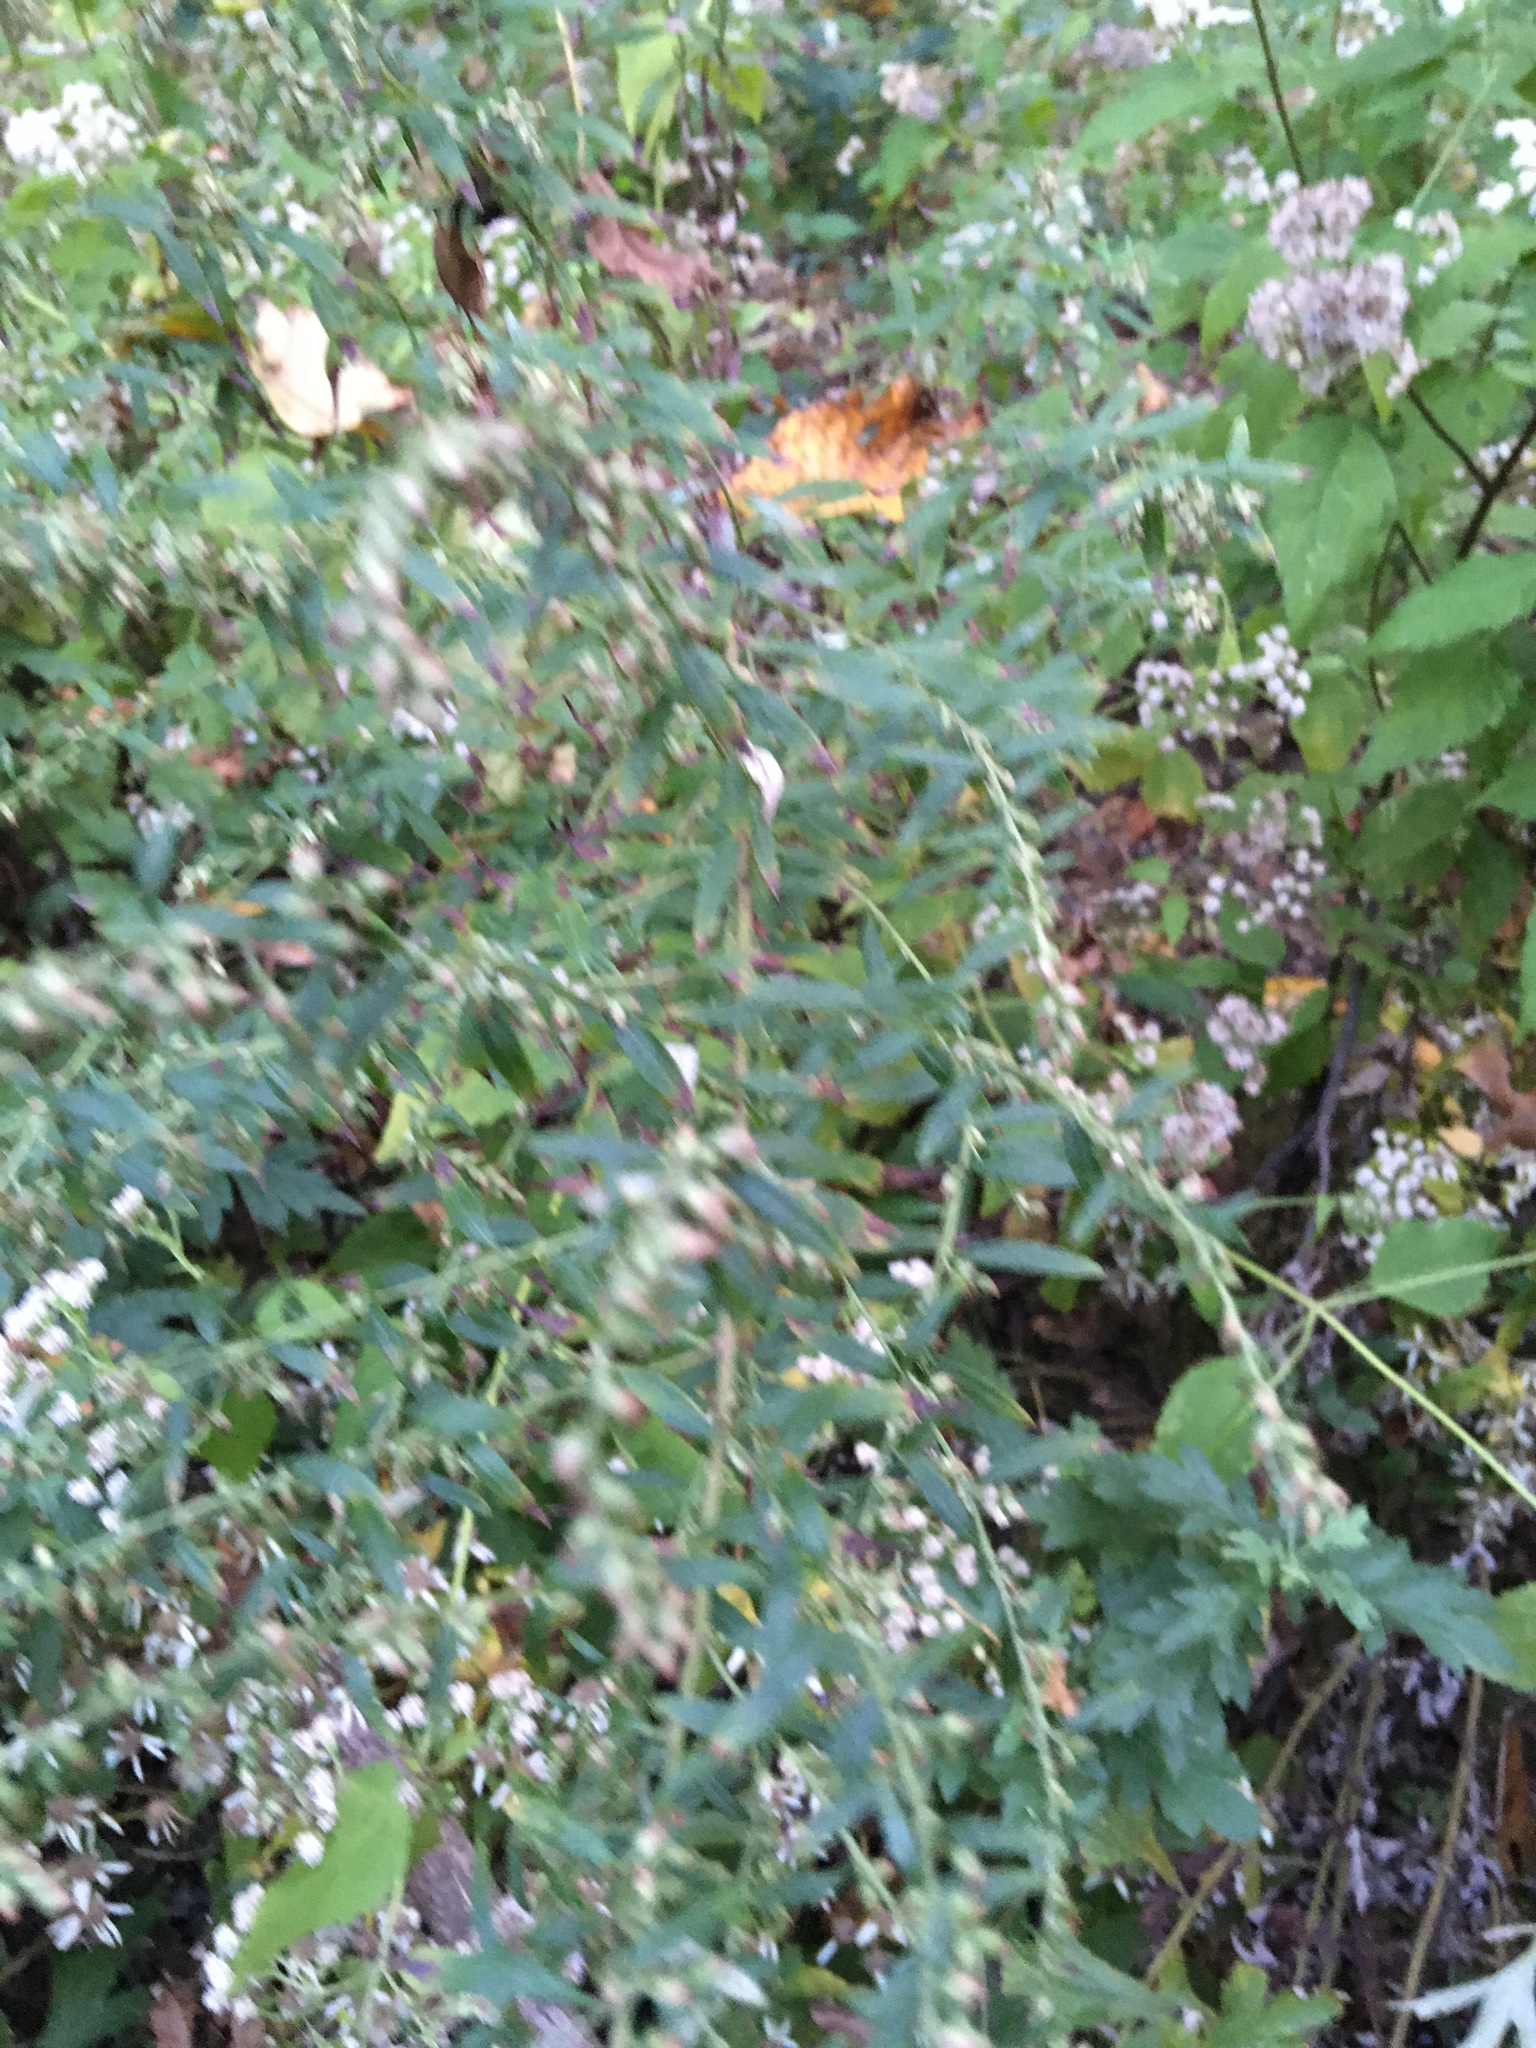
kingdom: Plantae
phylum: Tracheophyta
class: Magnoliopsida
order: Asterales
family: Asteraceae
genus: Artemisia
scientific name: Artemisia vulgaris
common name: Mugwort
